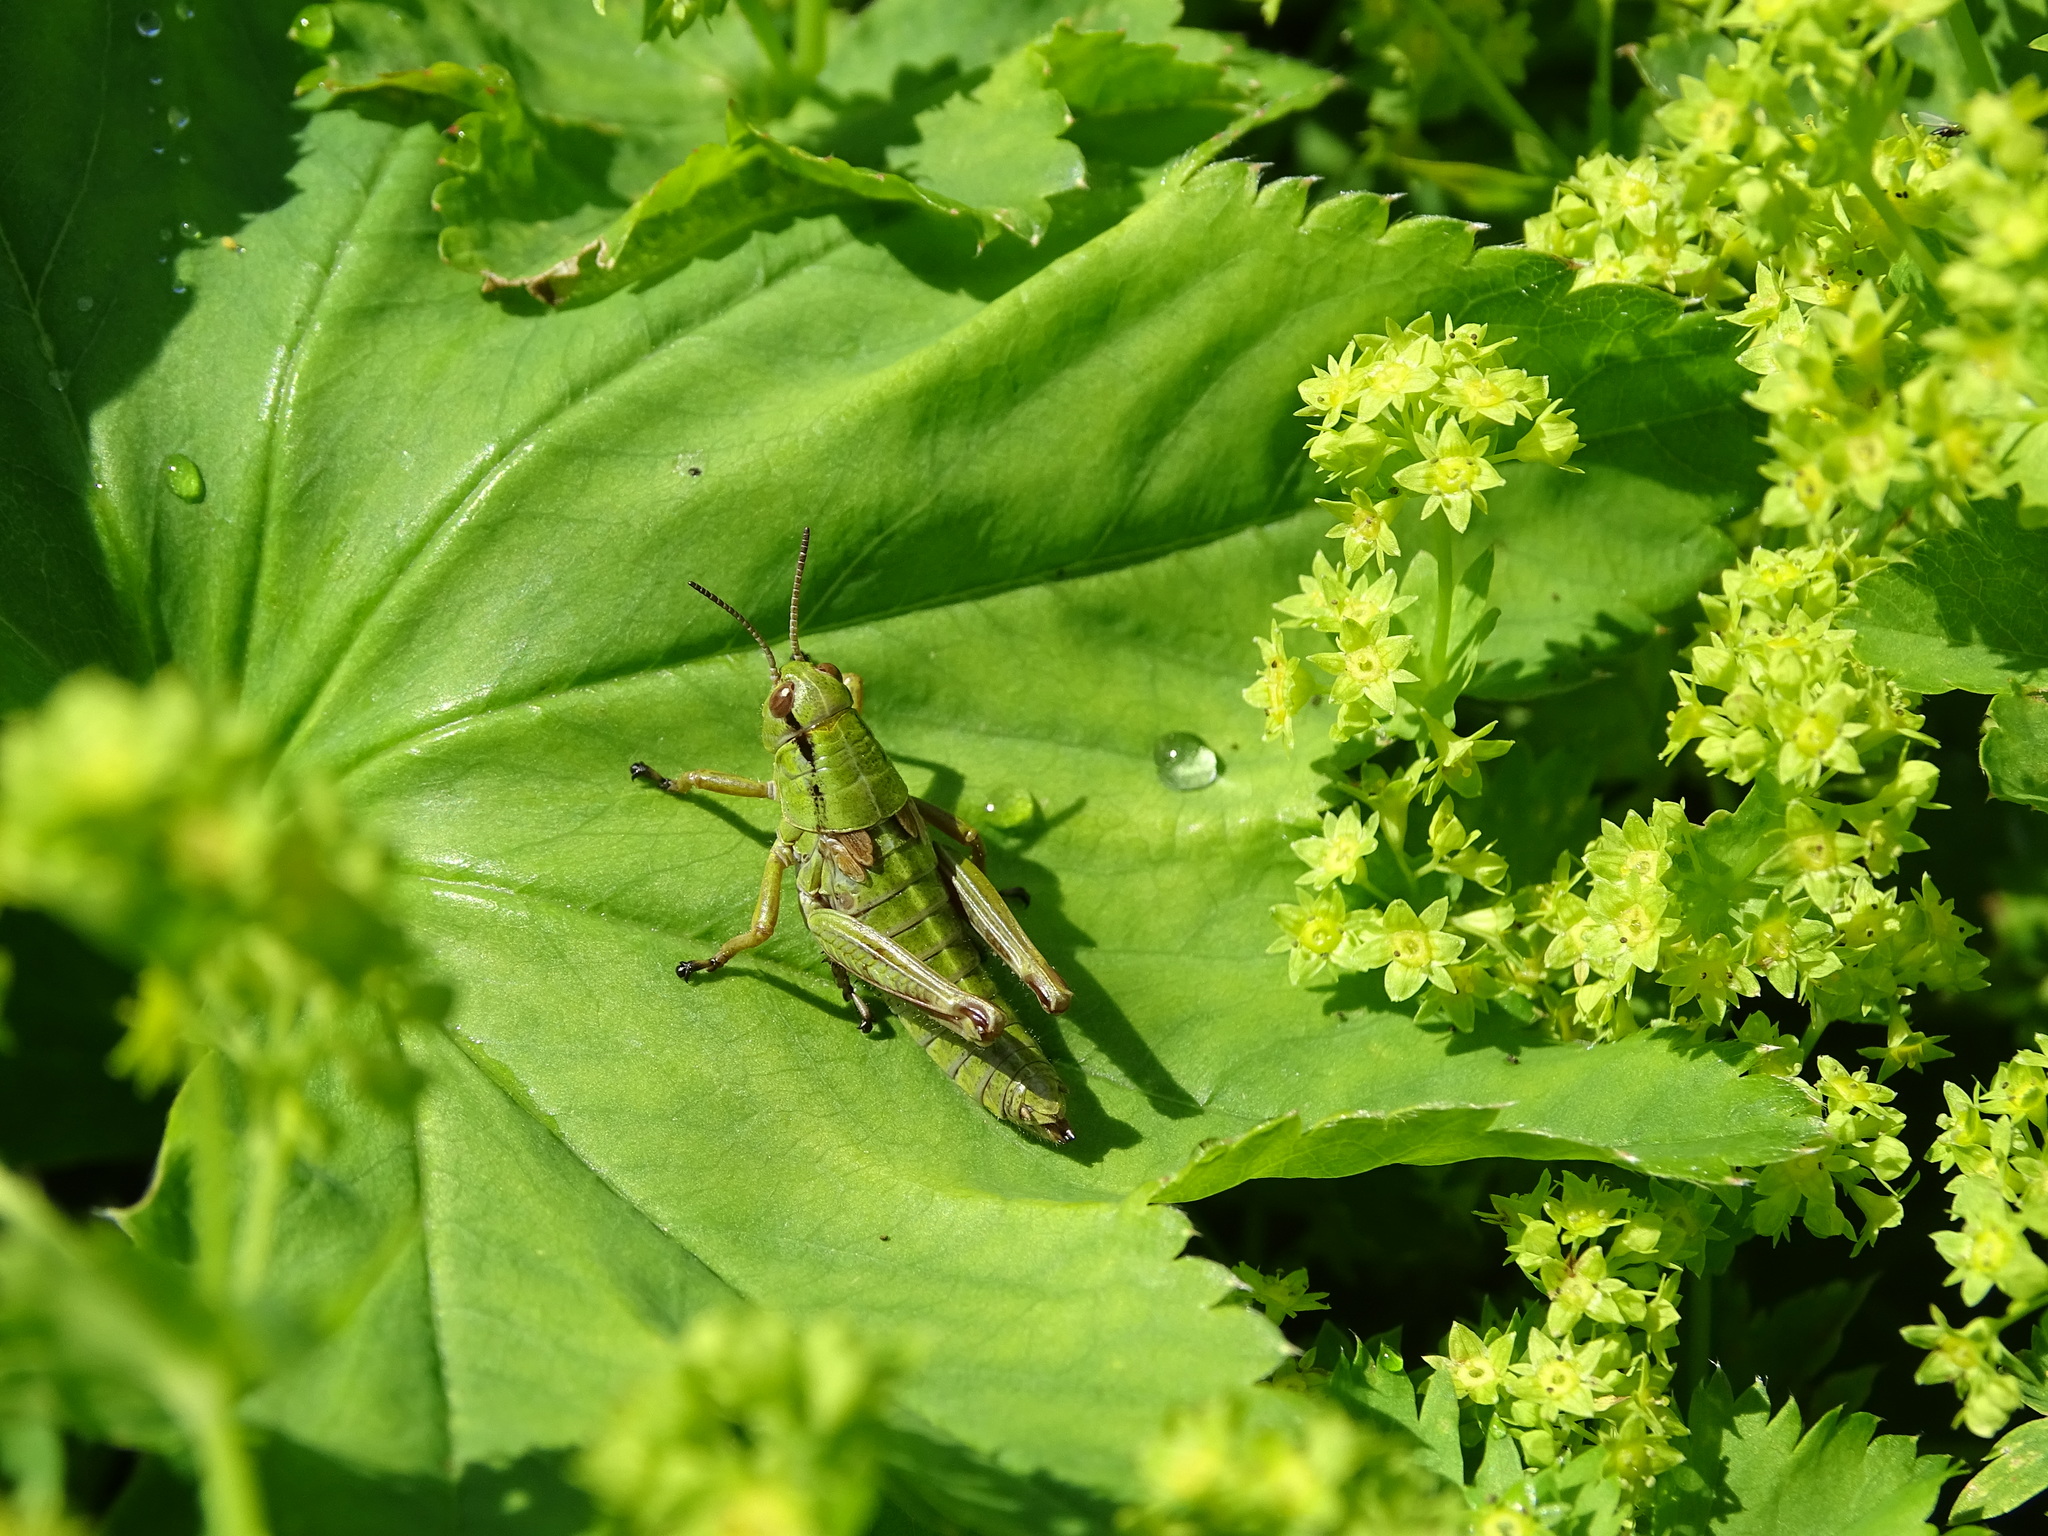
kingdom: Animalia
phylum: Arthropoda
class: Insecta
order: Orthoptera
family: Acrididae
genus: Miramella
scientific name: Miramella alpina
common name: Green mountain grasshopper
